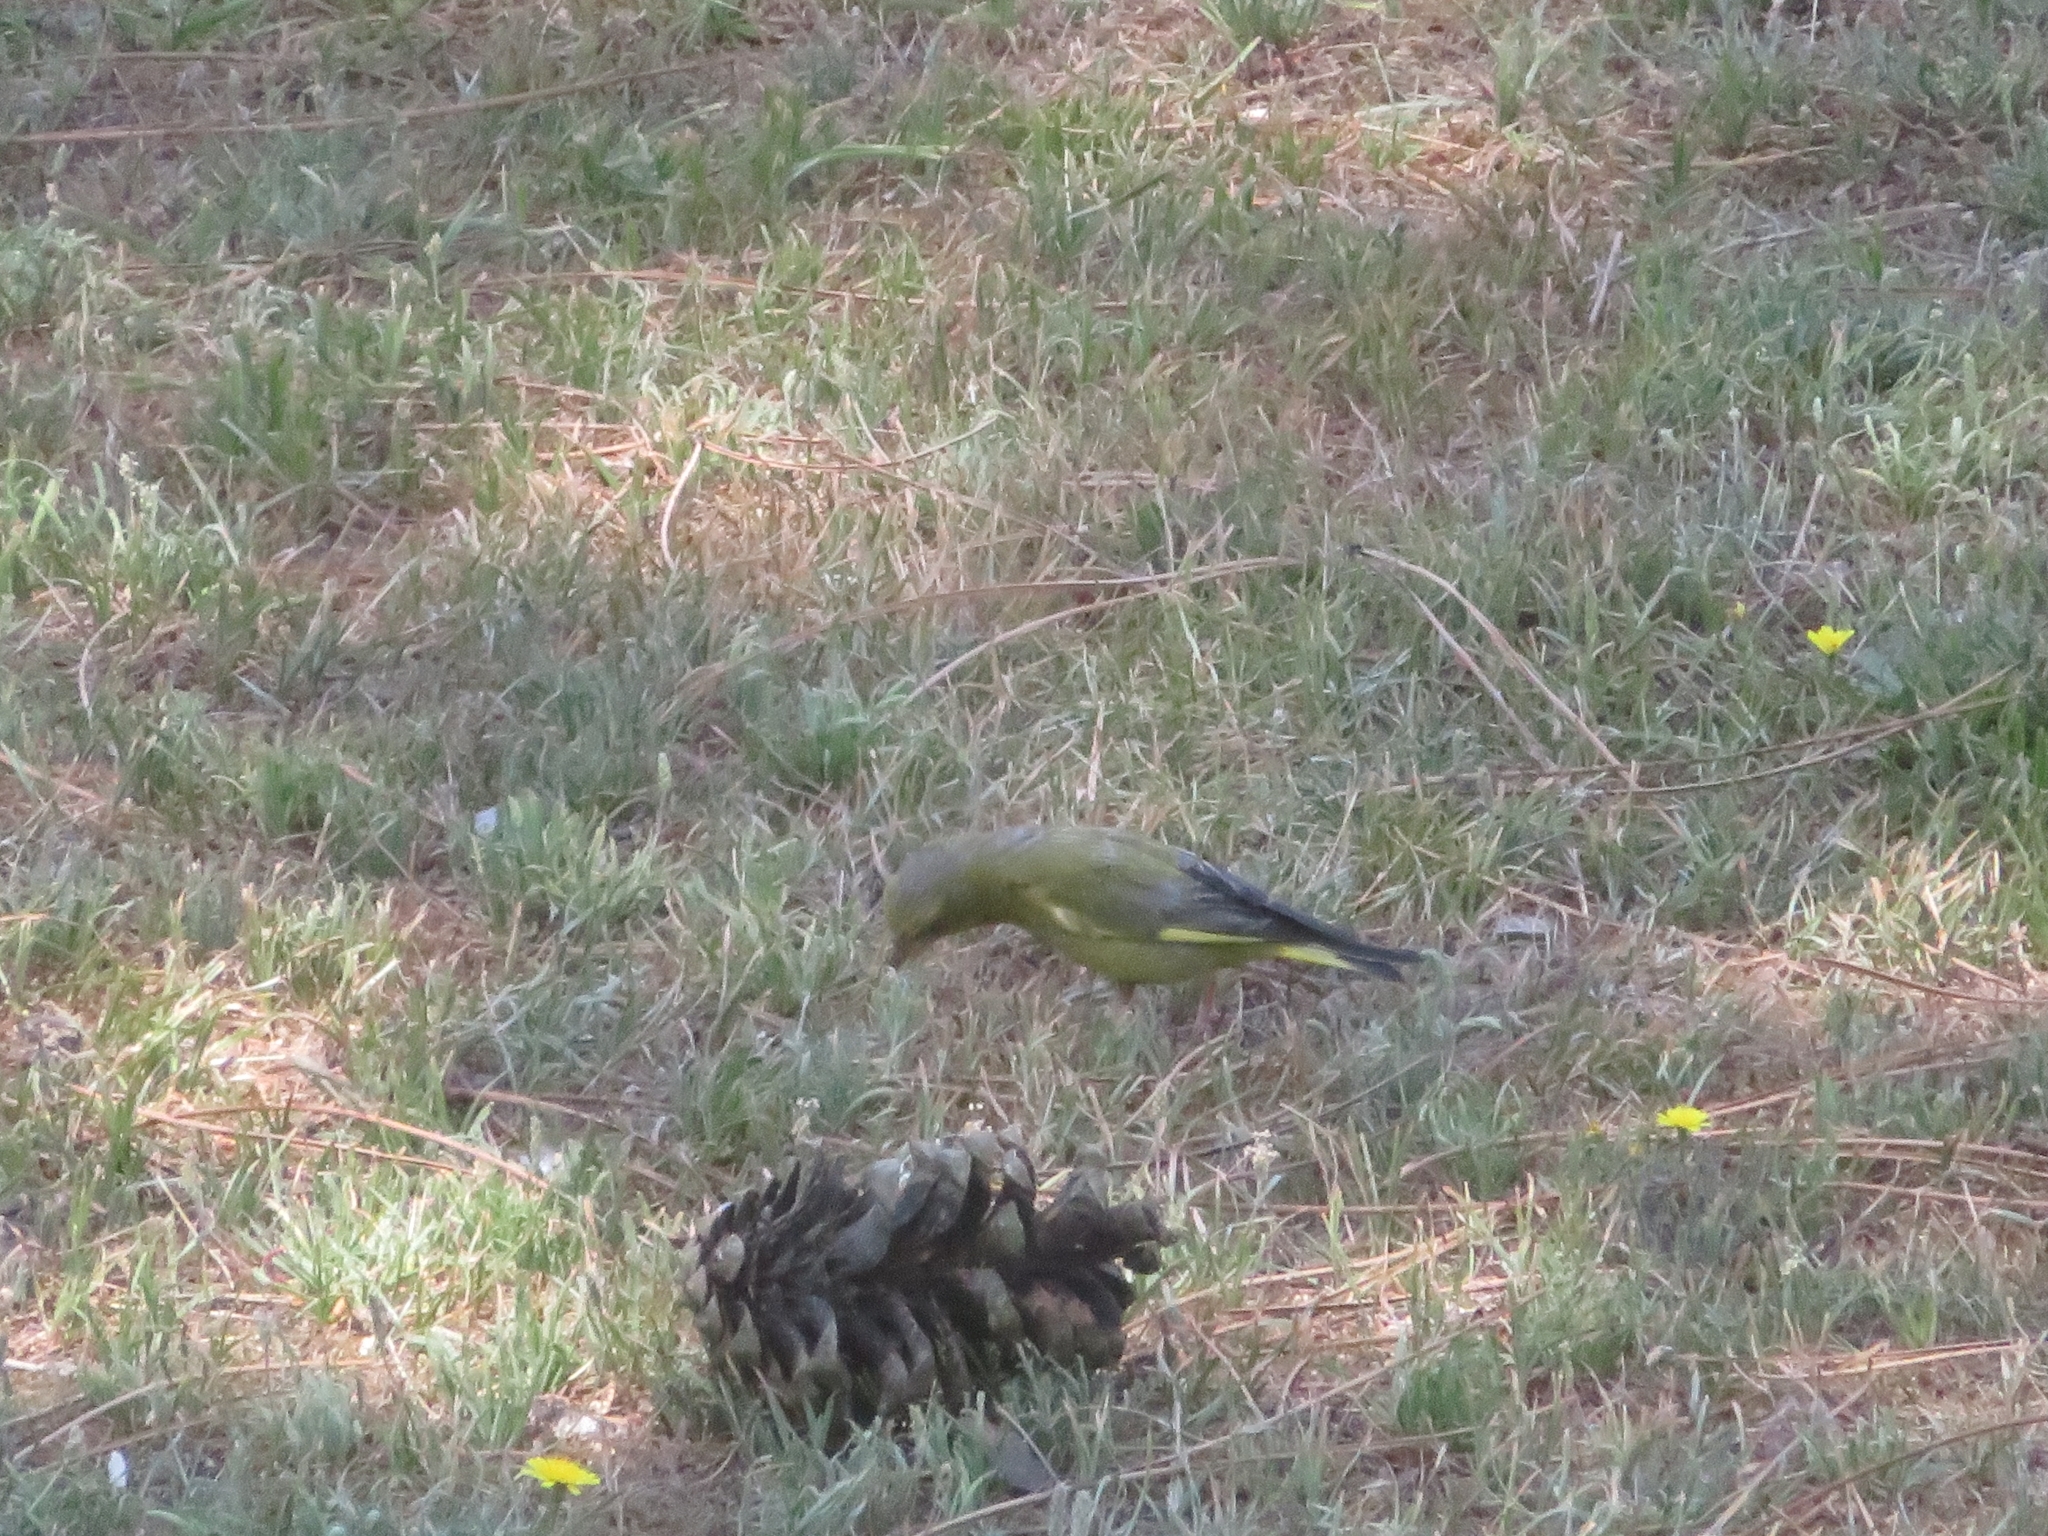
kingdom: Plantae
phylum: Tracheophyta
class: Liliopsida
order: Poales
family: Poaceae
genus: Chloris
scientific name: Chloris chloris
